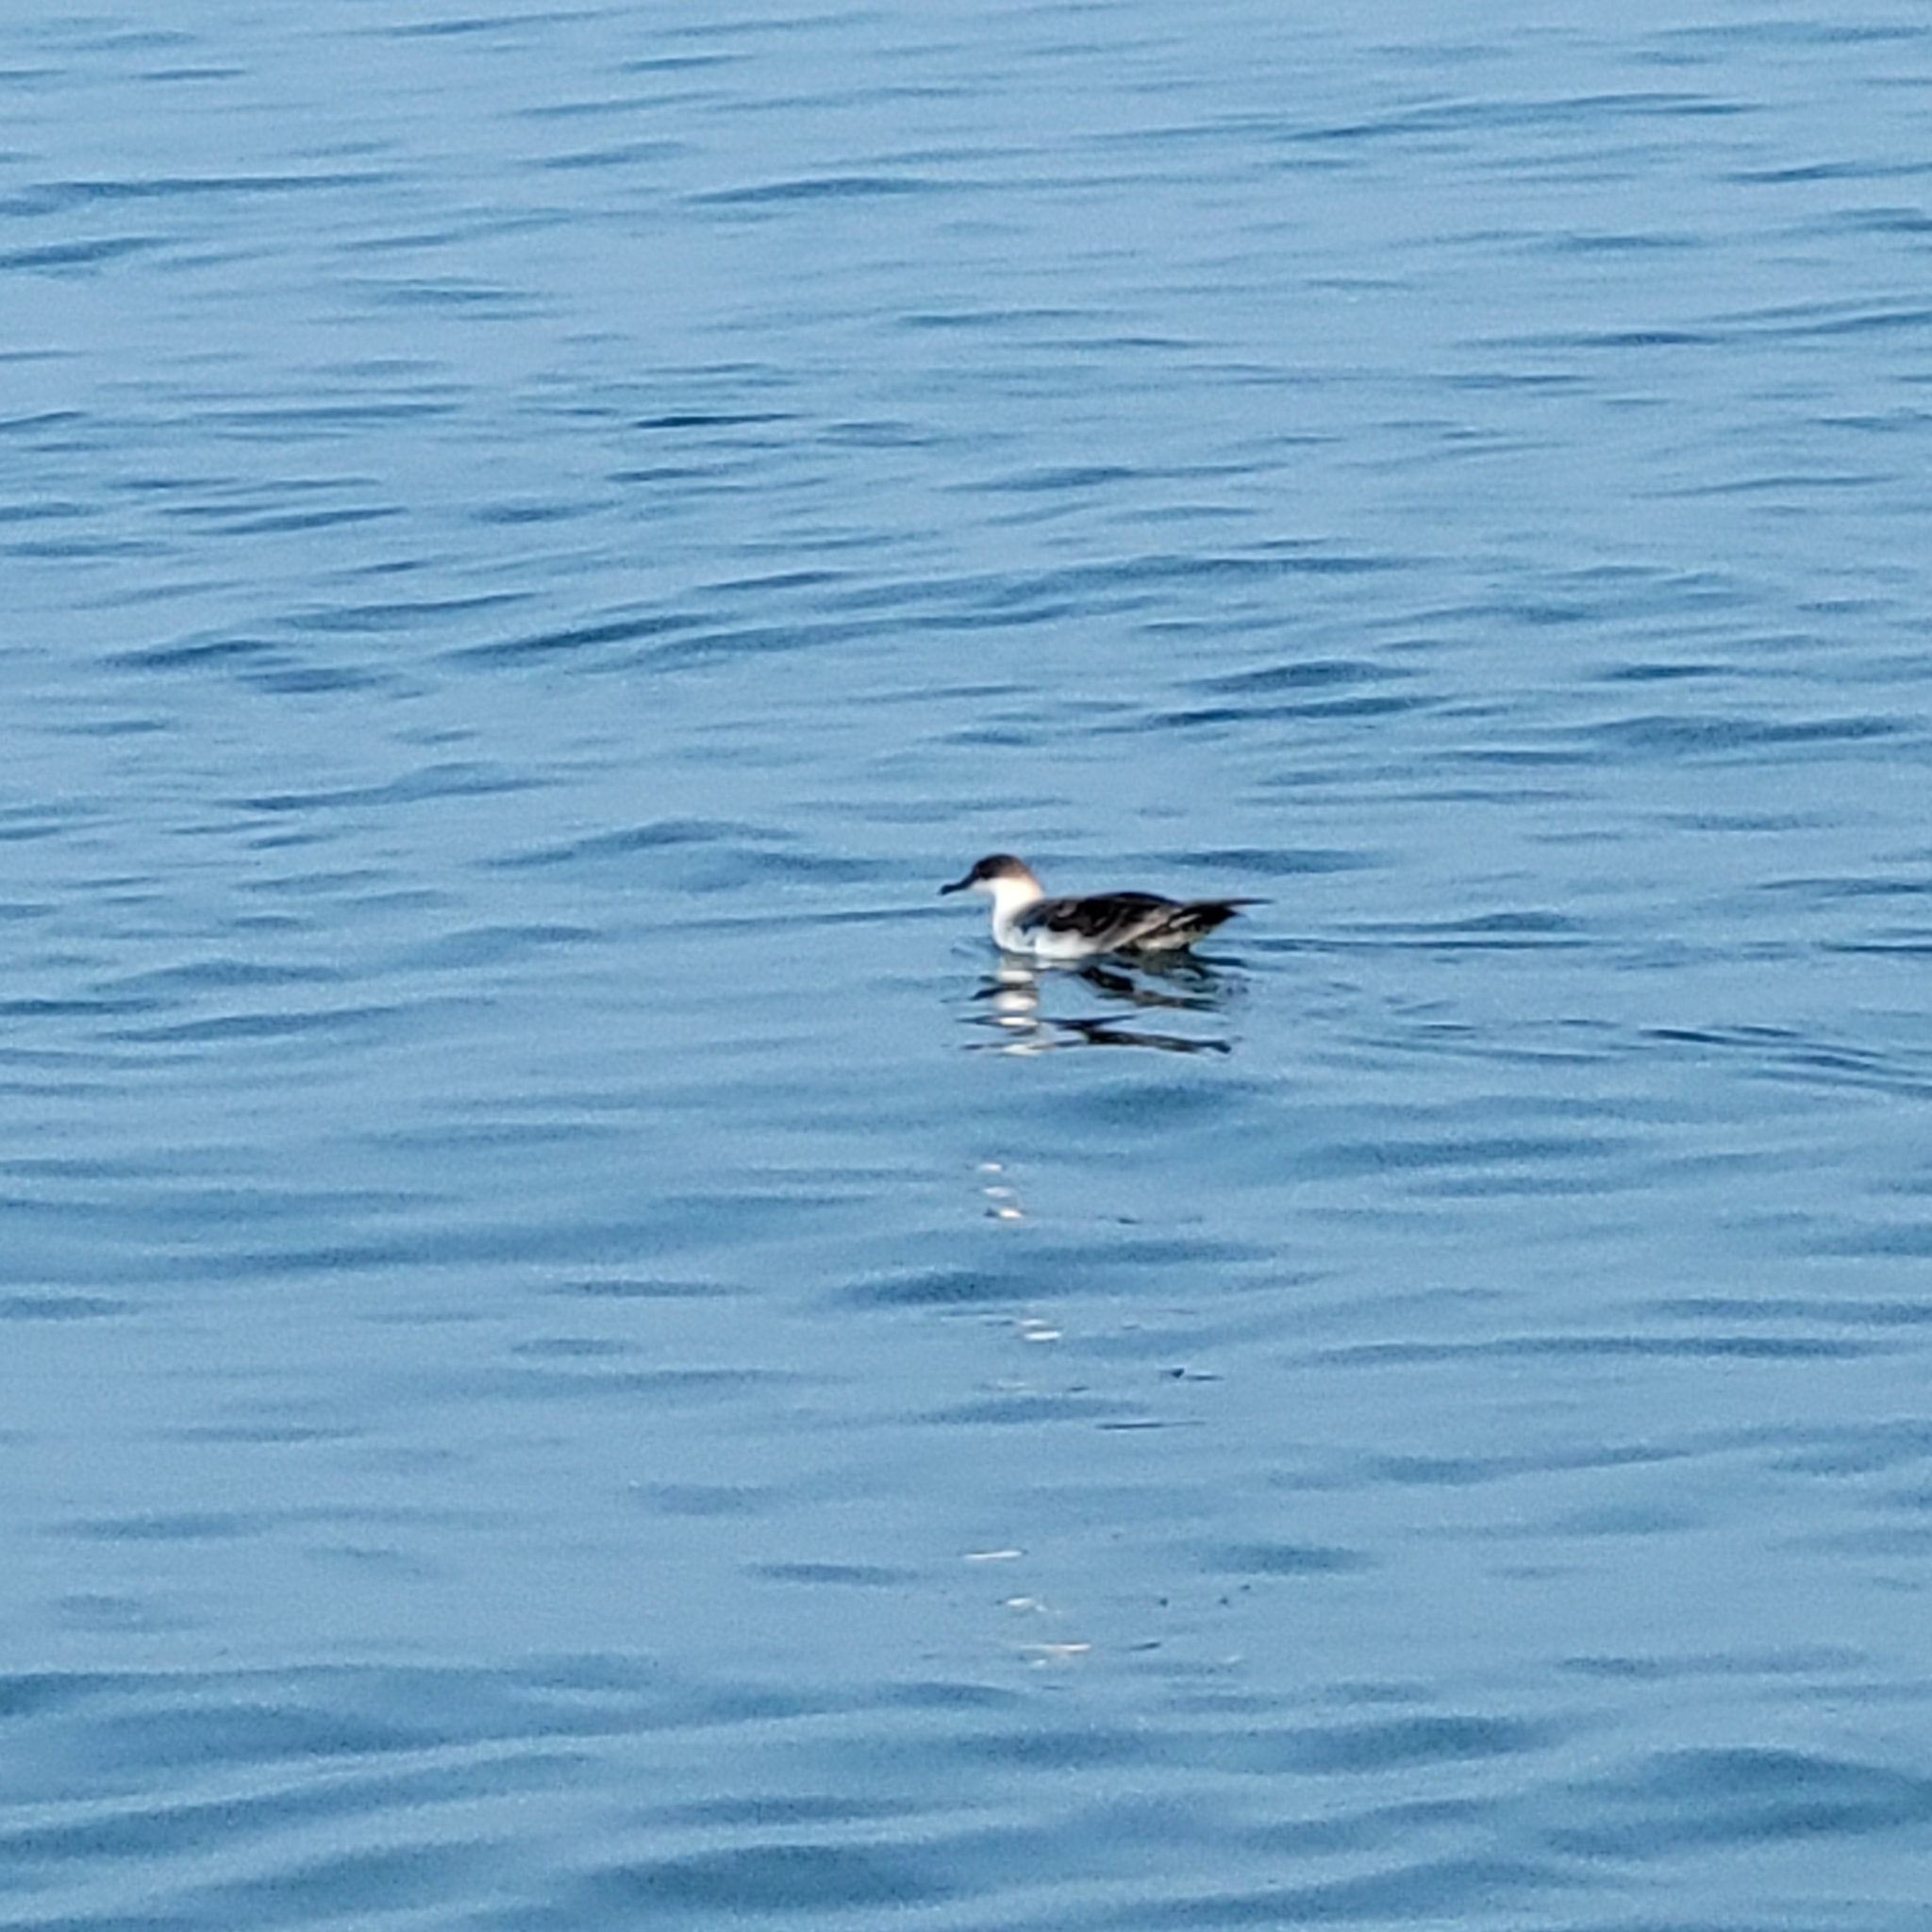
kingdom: Animalia
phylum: Chordata
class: Aves
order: Procellariiformes
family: Procellariidae
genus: Puffinus
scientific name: Puffinus gravis
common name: Great shearwater
